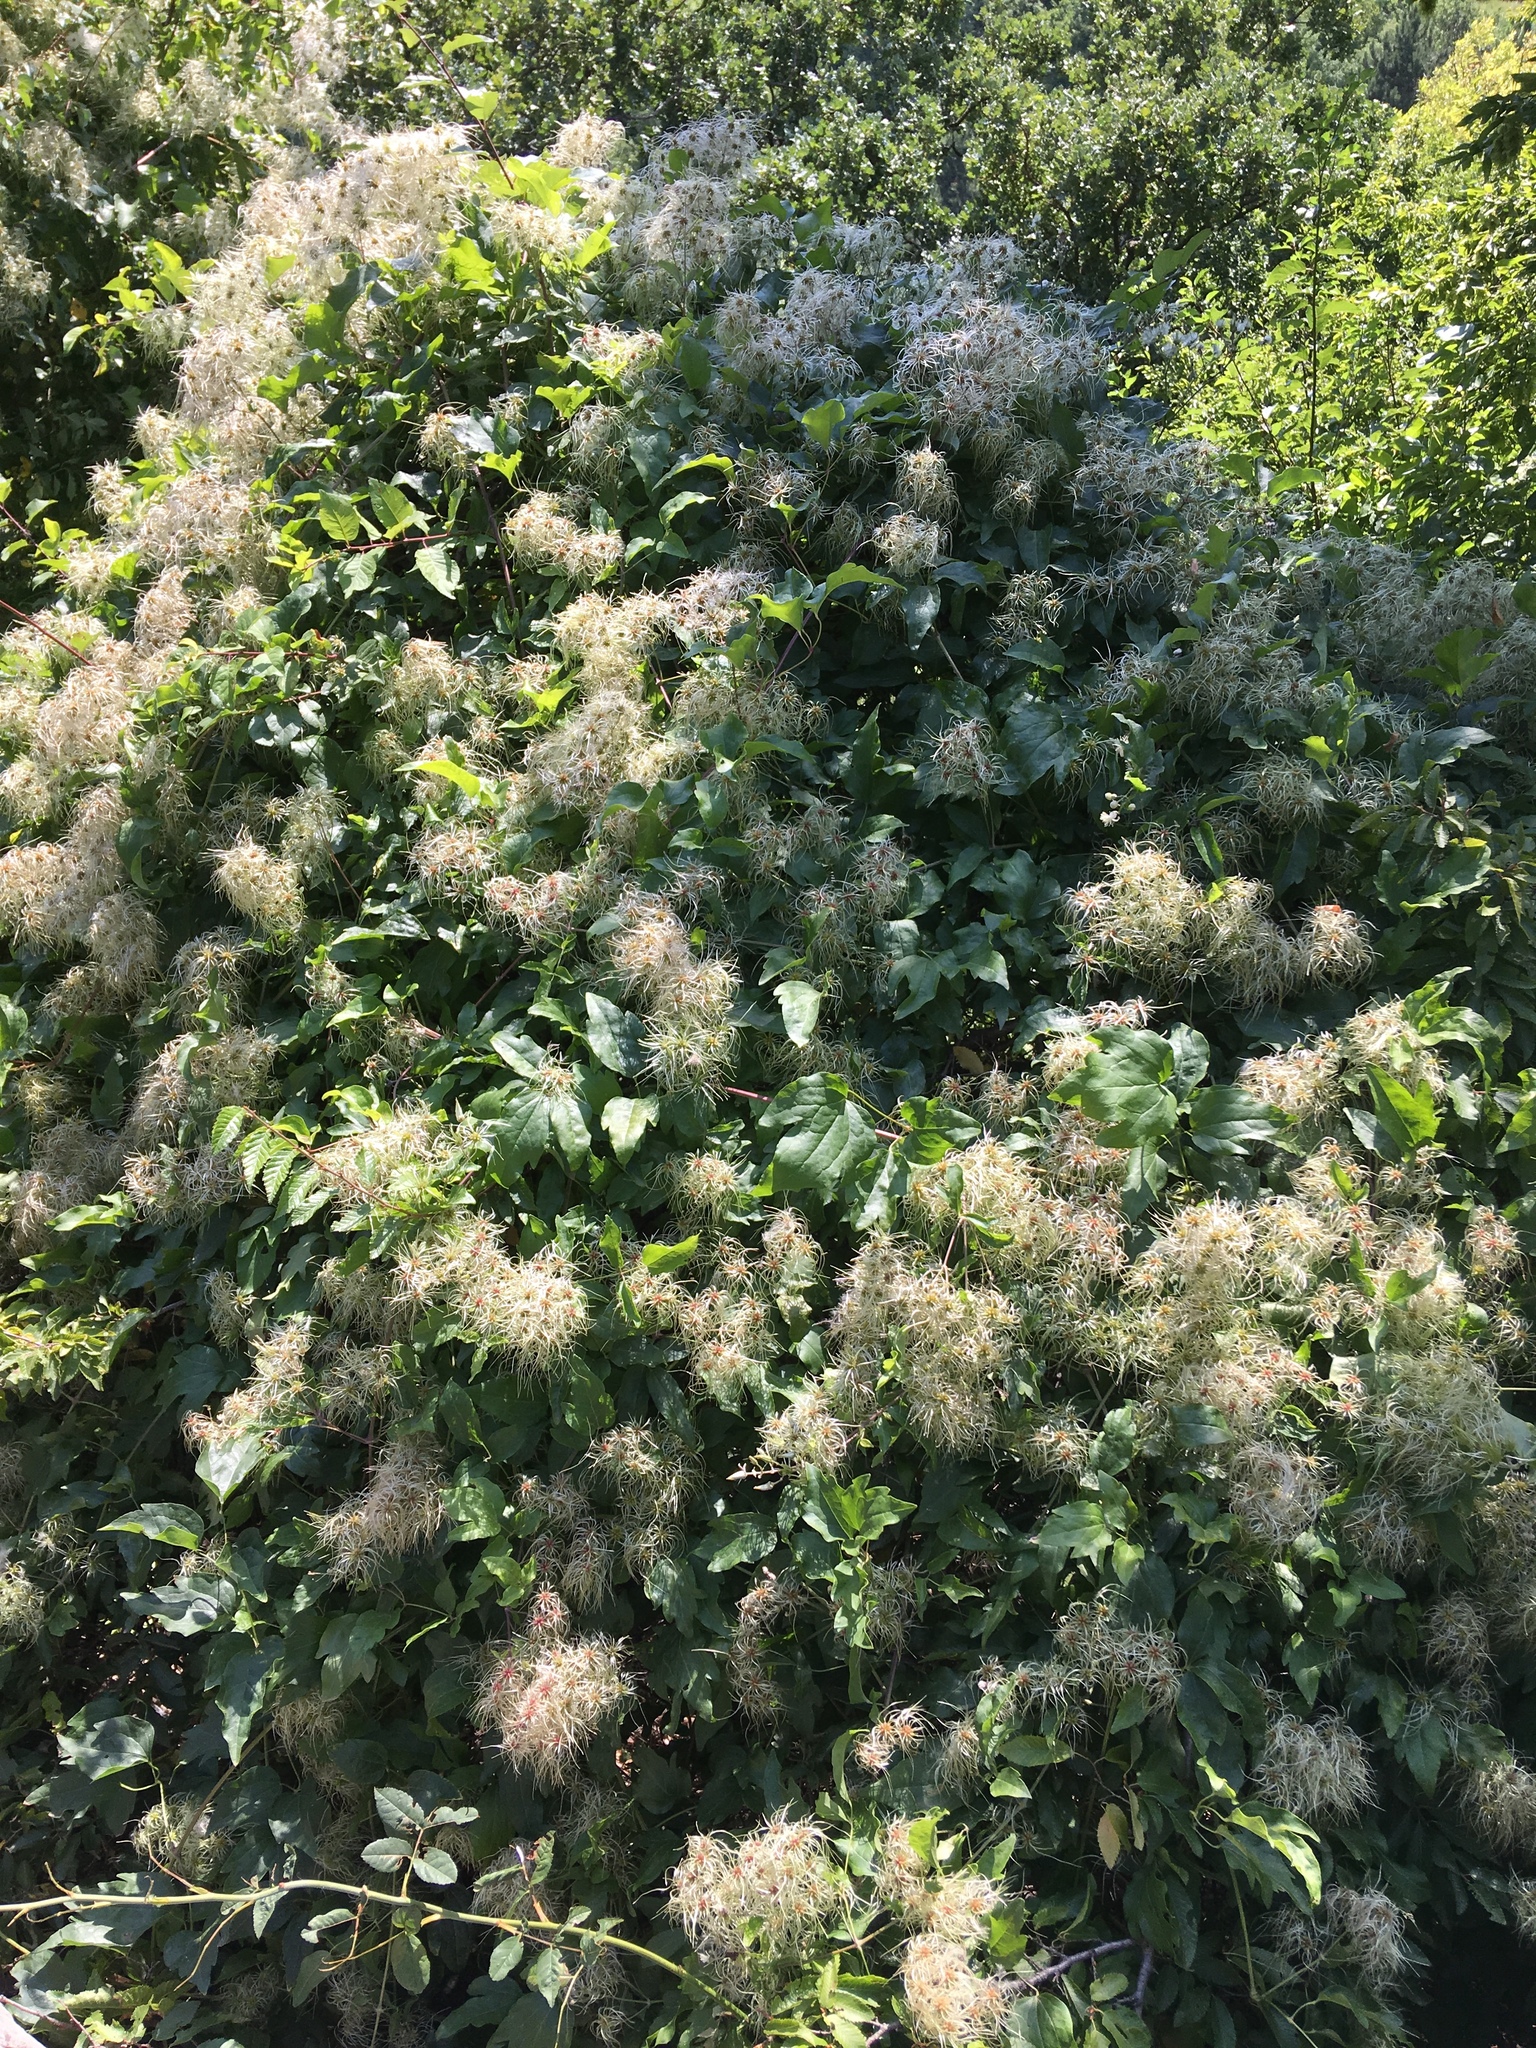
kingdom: Plantae
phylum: Tracheophyta
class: Magnoliopsida
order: Ranunculales
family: Ranunculaceae
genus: Clematis
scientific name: Clematis vitalba
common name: Evergreen clematis
